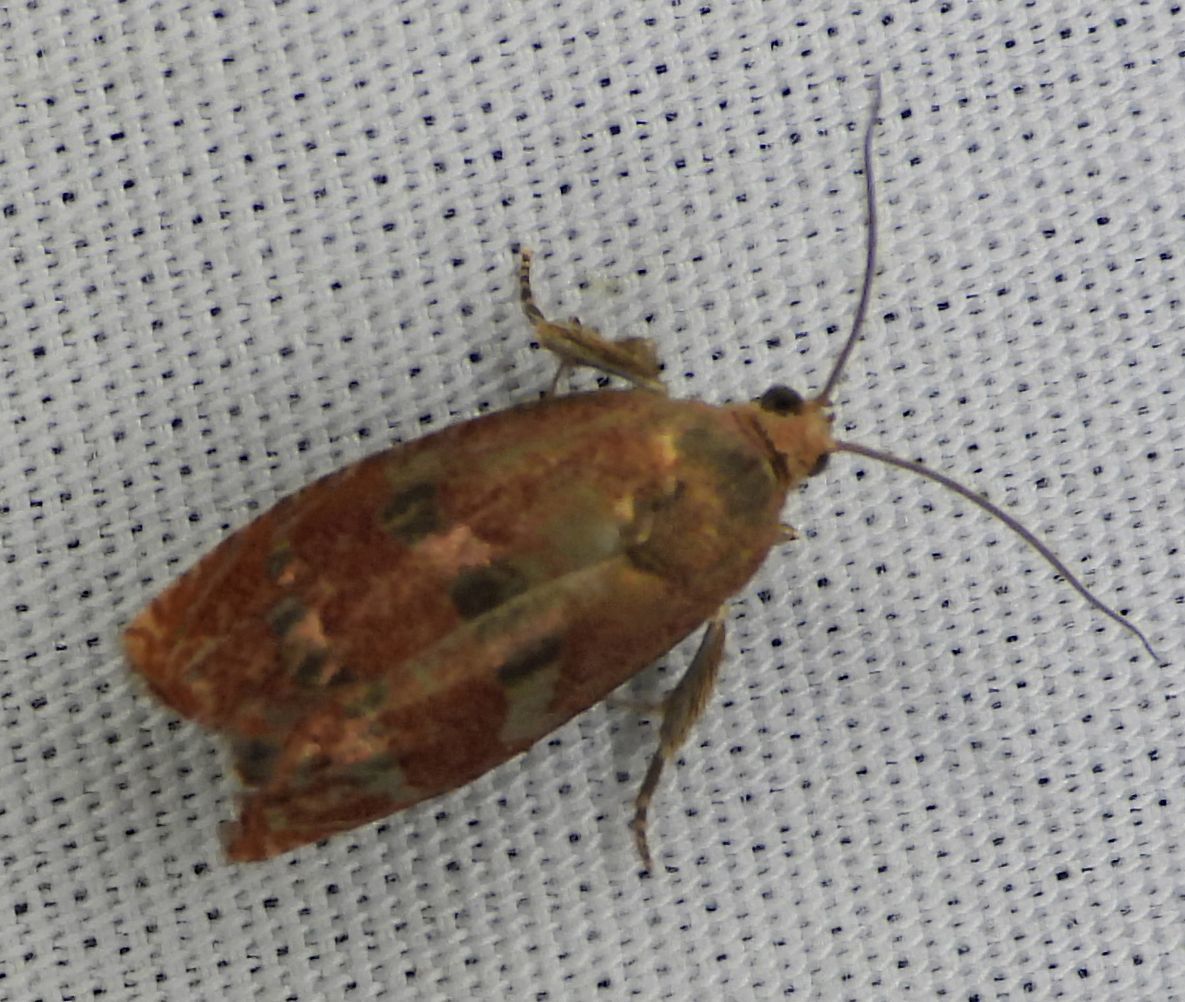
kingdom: Animalia
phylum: Arthropoda
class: Insecta
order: Lepidoptera
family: Tortricidae
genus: Cydia
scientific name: Cydia latiferreana
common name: Filbertworm moth
